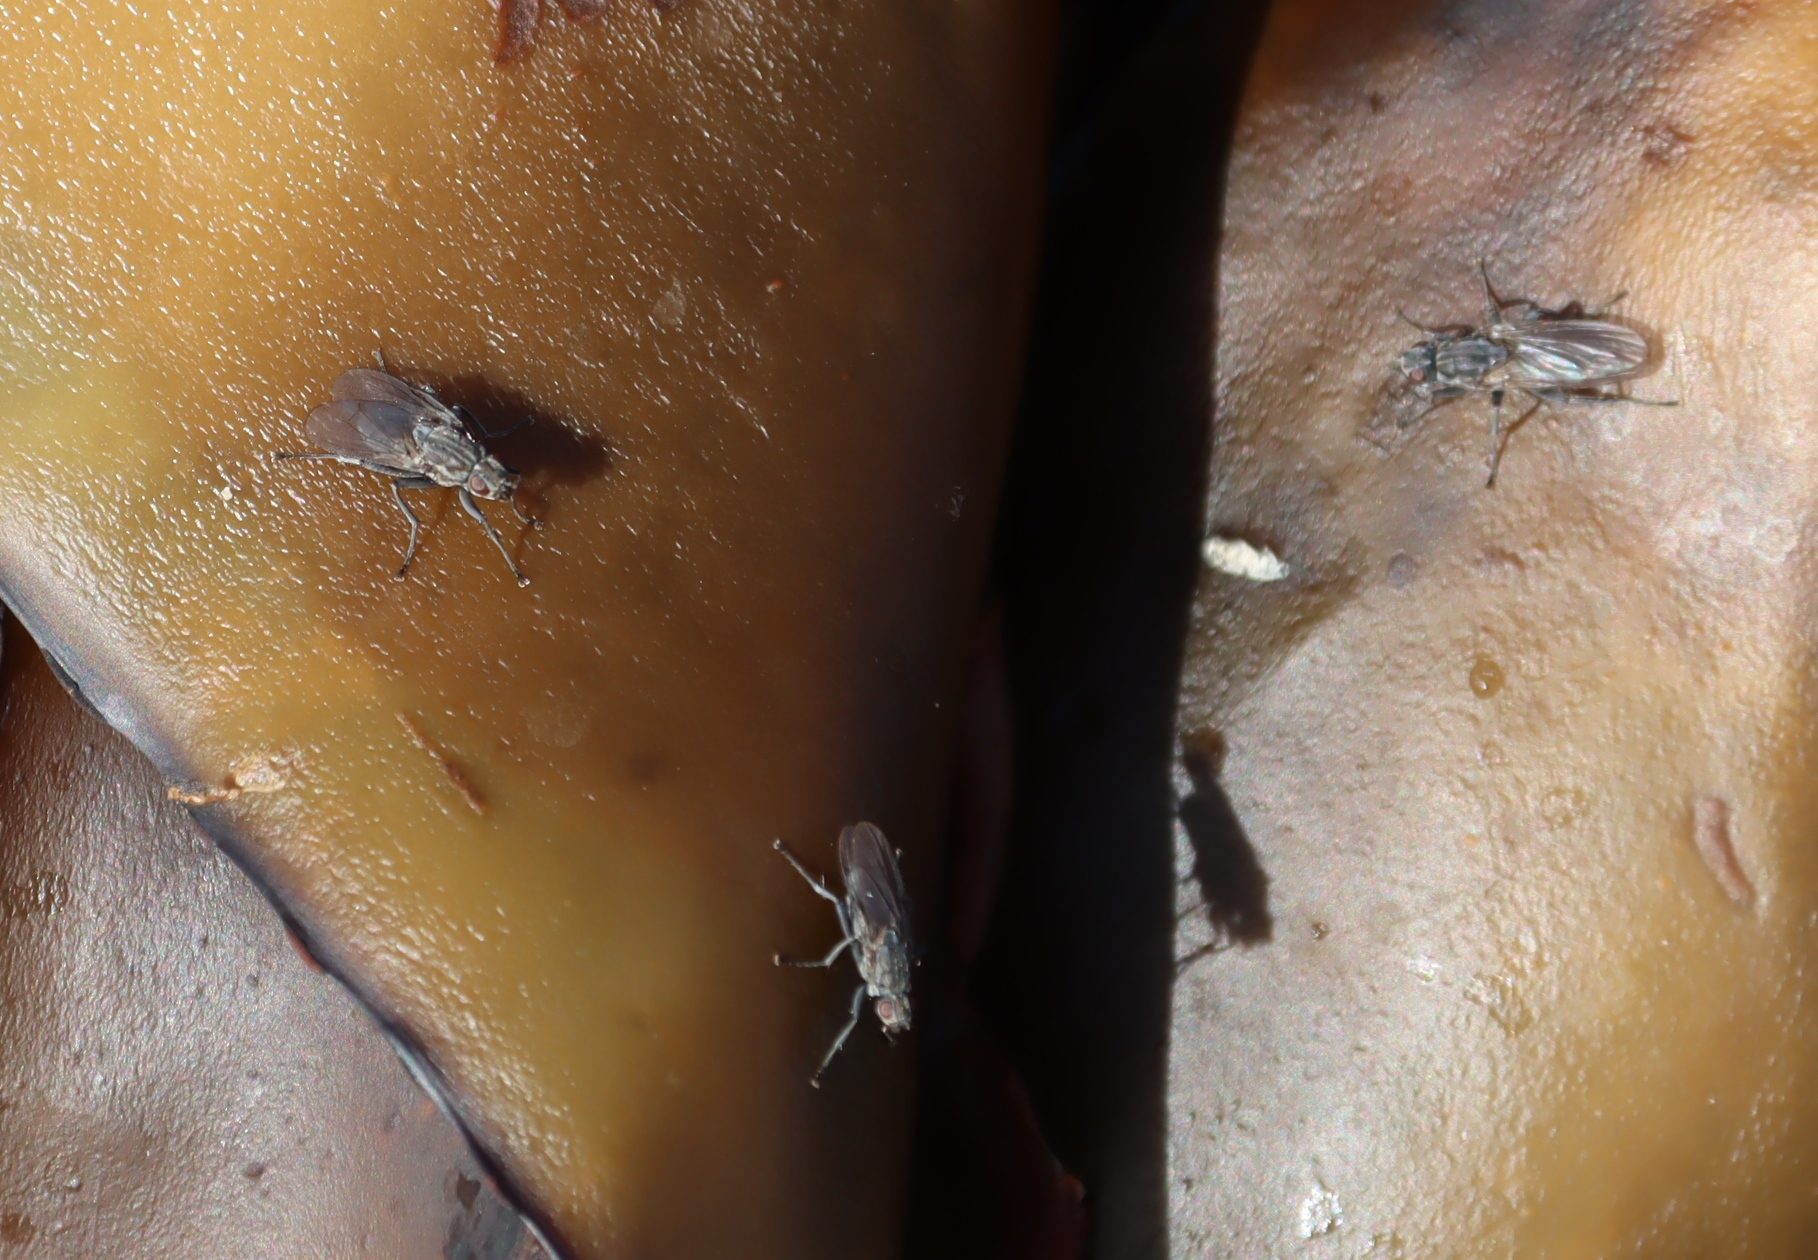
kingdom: Animalia
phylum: Arthropoda
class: Insecta
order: Diptera
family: Anthomyiidae
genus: Fucellia
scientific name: Fucellia capensis
